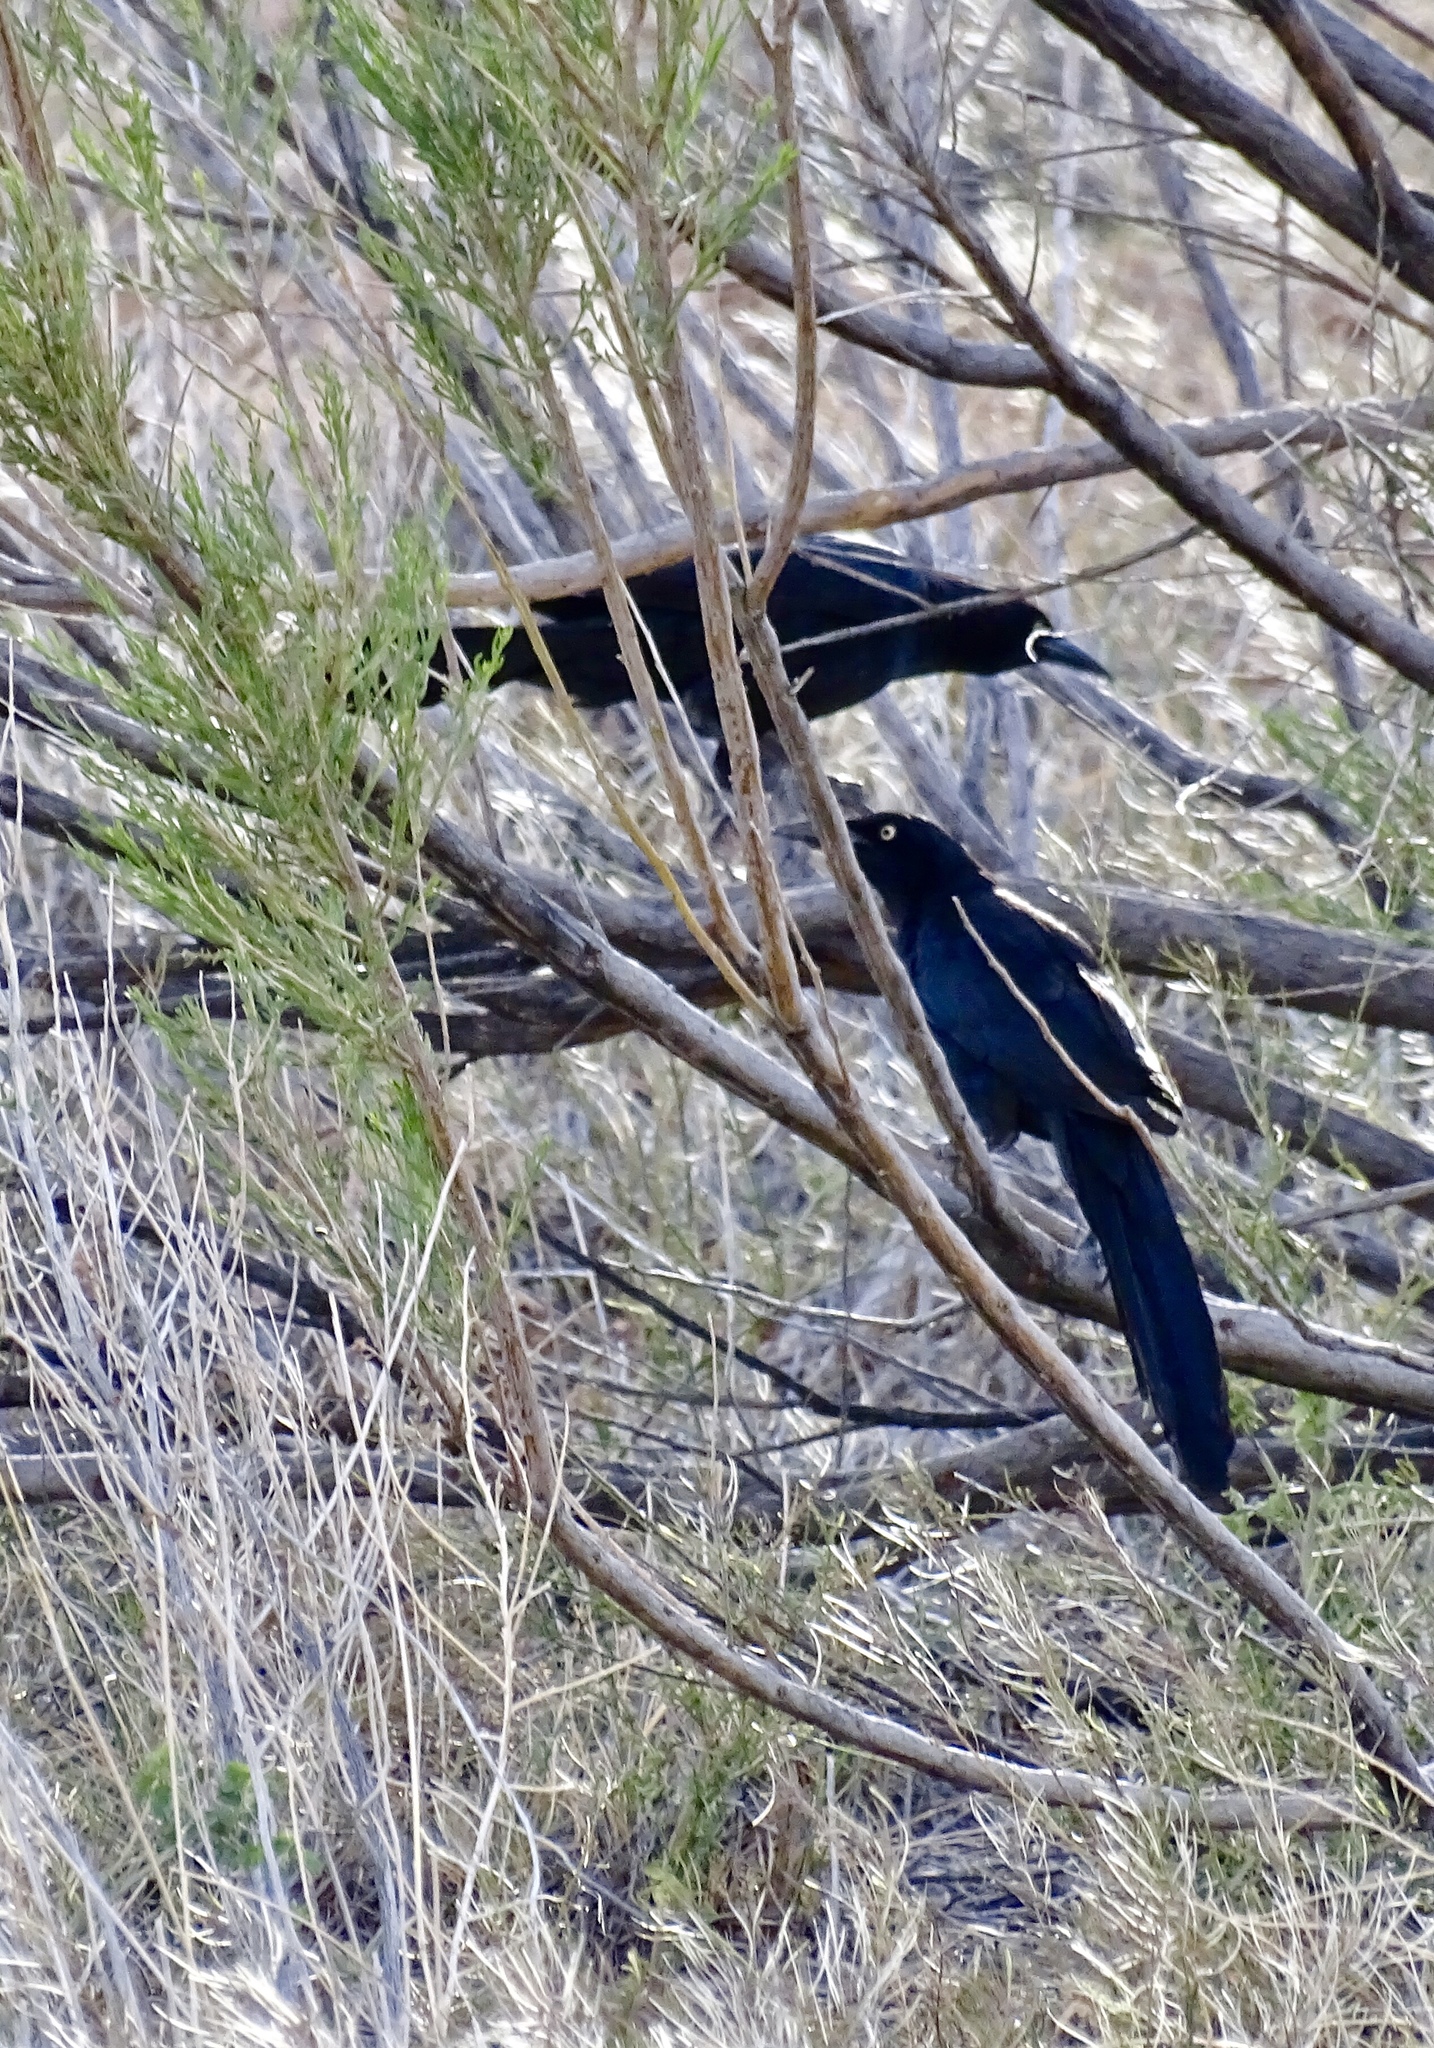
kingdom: Animalia
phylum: Chordata
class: Aves
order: Passeriformes
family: Icteridae
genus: Quiscalus
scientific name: Quiscalus mexicanus
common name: Great-tailed grackle
